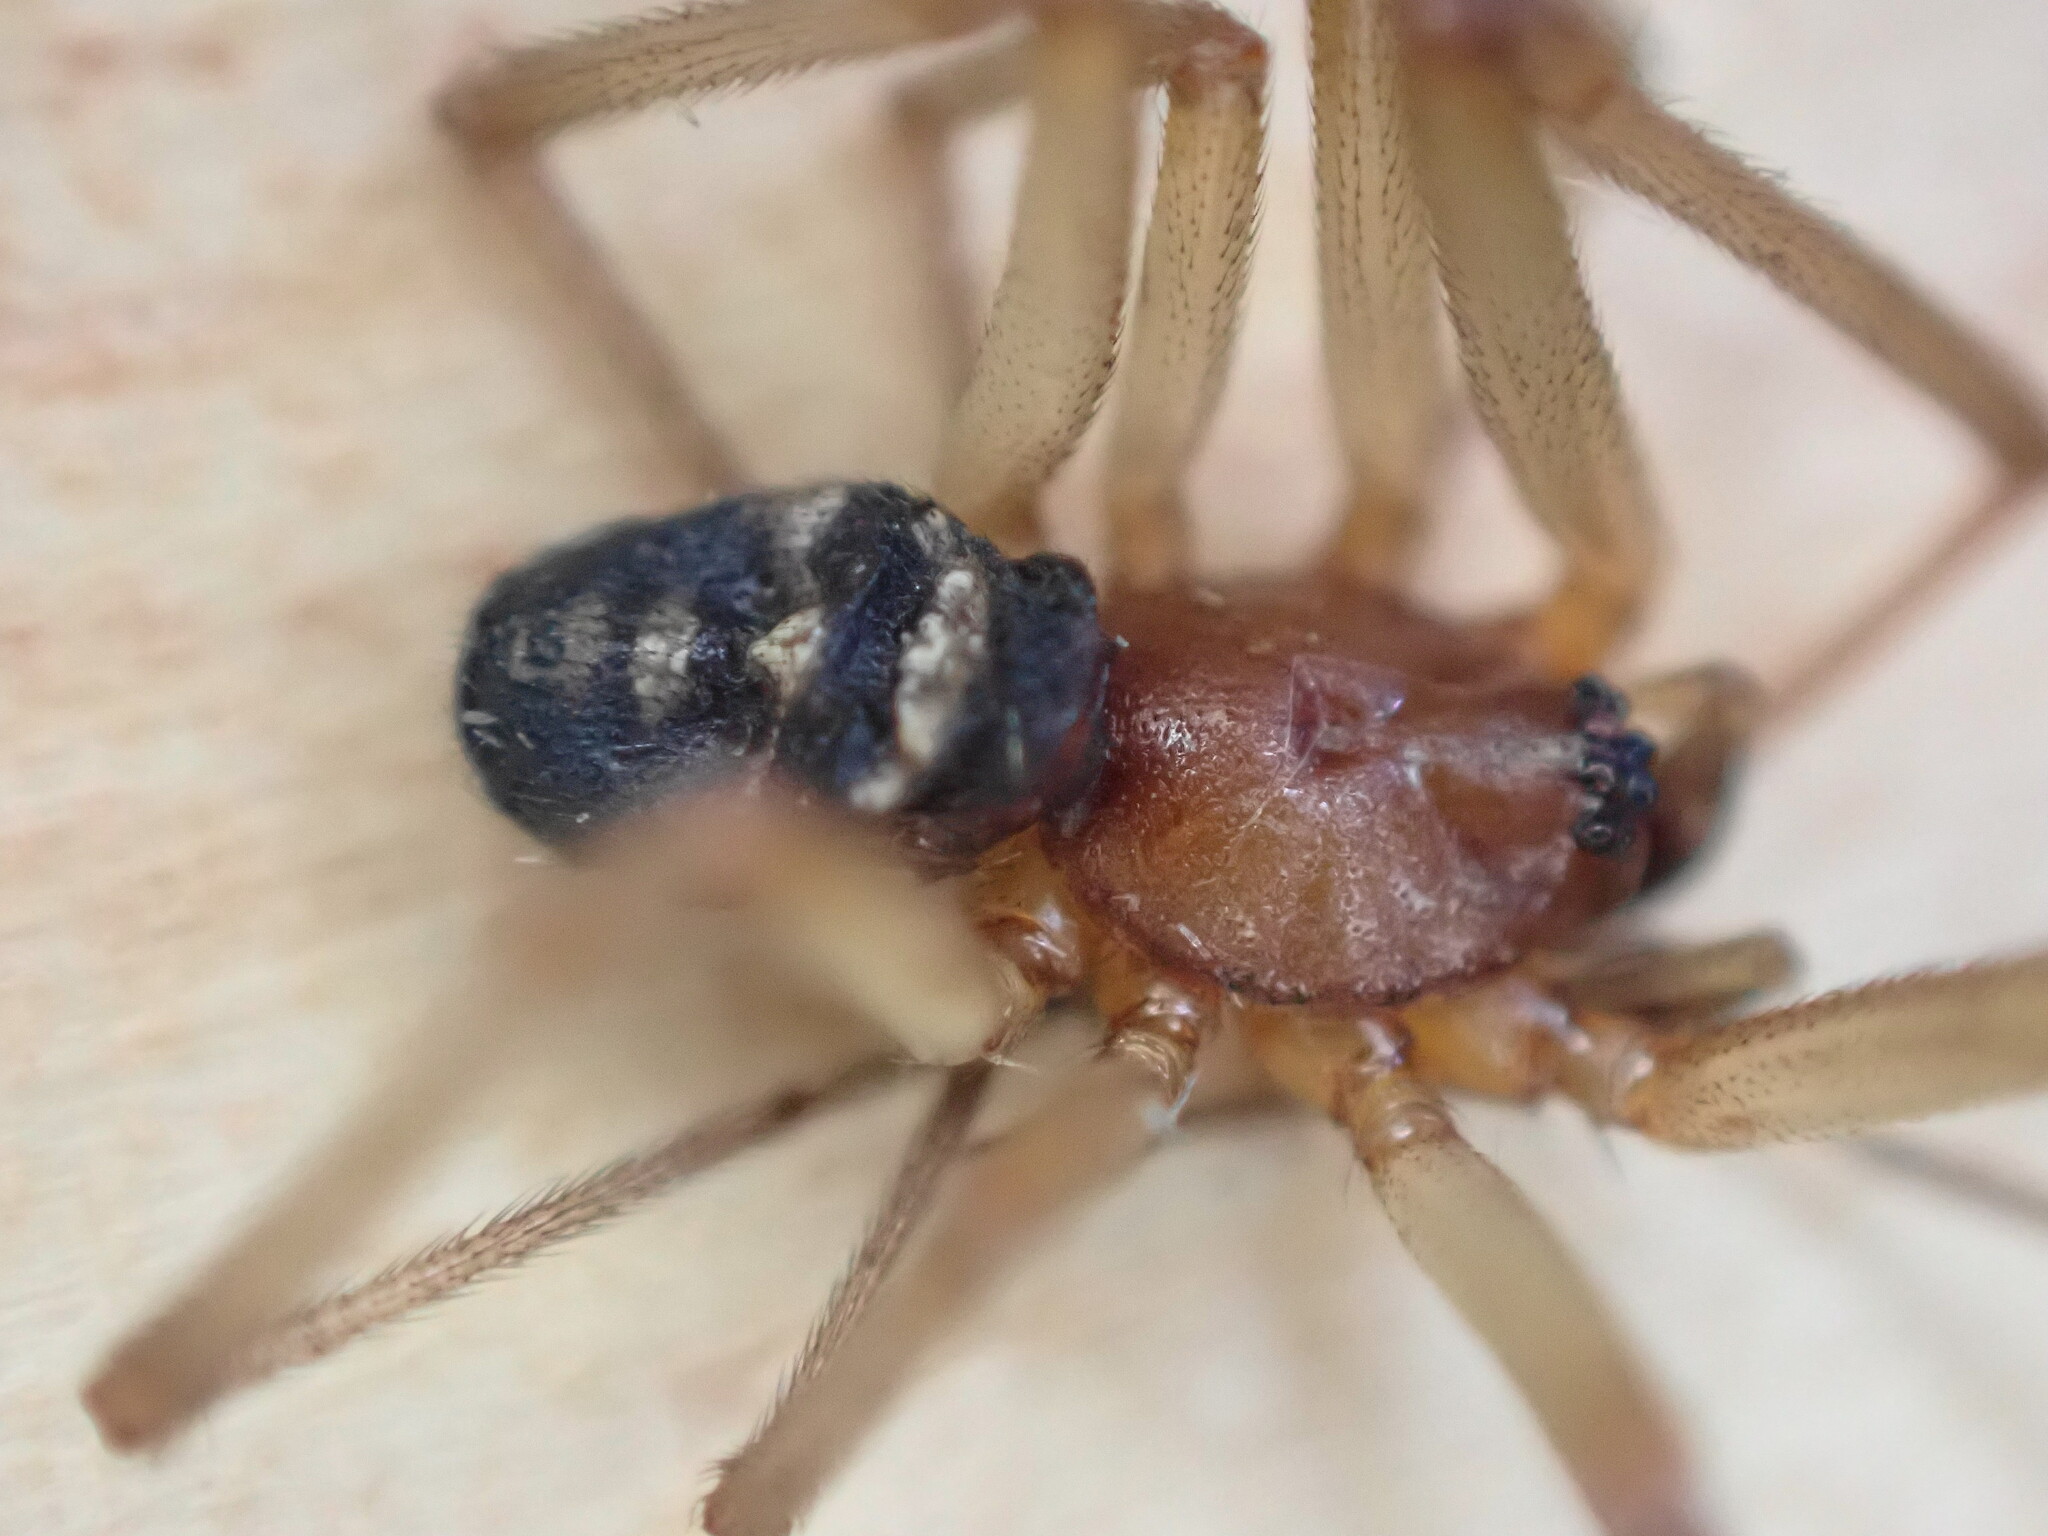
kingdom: Animalia
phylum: Arthropoda
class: Arachnida
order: Araneae
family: Theridiidae
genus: Steatoda
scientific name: Steatoda grossa
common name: False black widow
